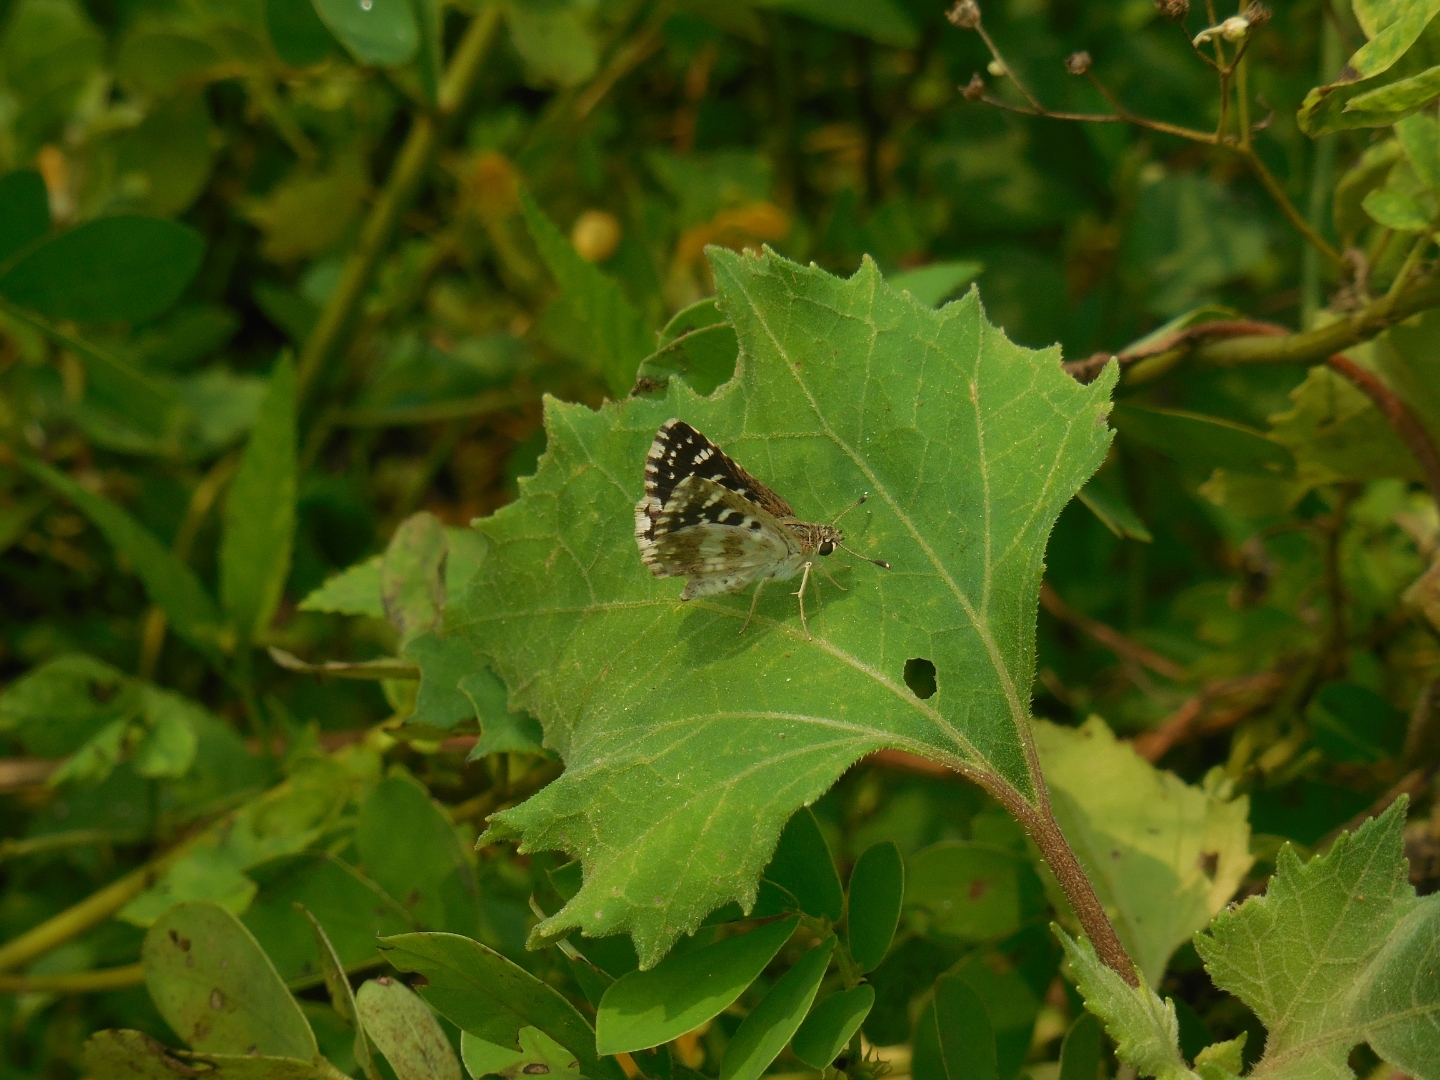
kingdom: Animalia
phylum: Arthropoda
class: Insecta
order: Lepidoptera
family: Hesperiidae
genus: Spialia
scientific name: Spialia galba
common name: Indian skipper
